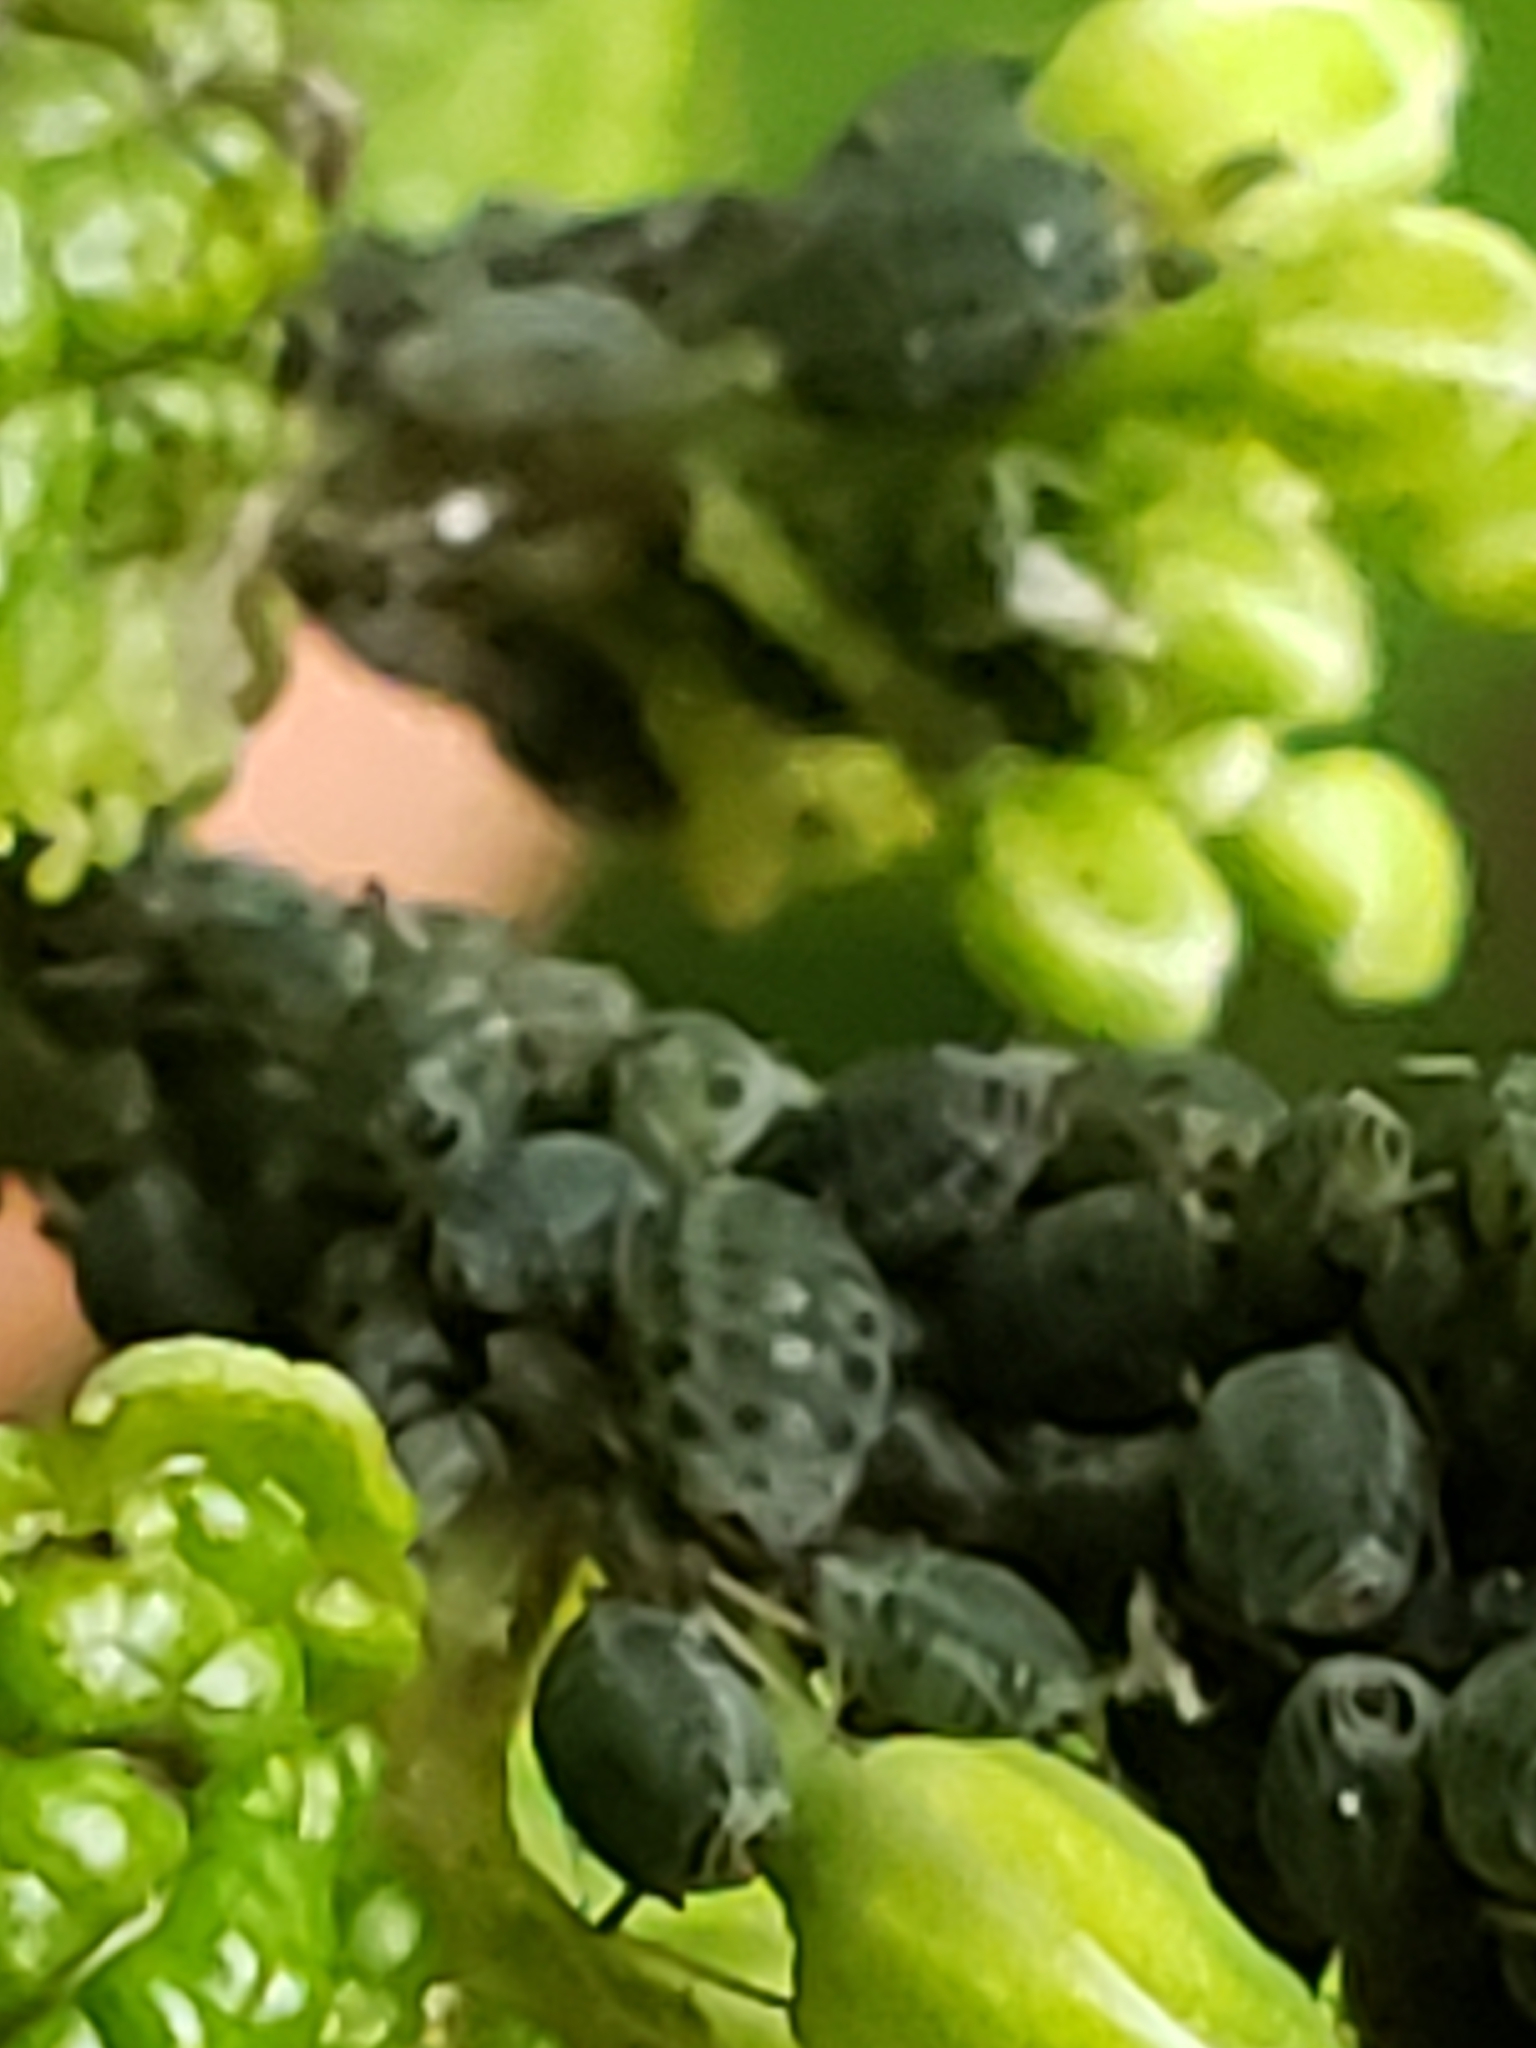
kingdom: Animalia
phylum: Arthropoda
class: Insecta
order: Hemiptera
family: Aphididae
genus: Lipaphis
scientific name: Lipaphis alliariae
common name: Granade aphid
